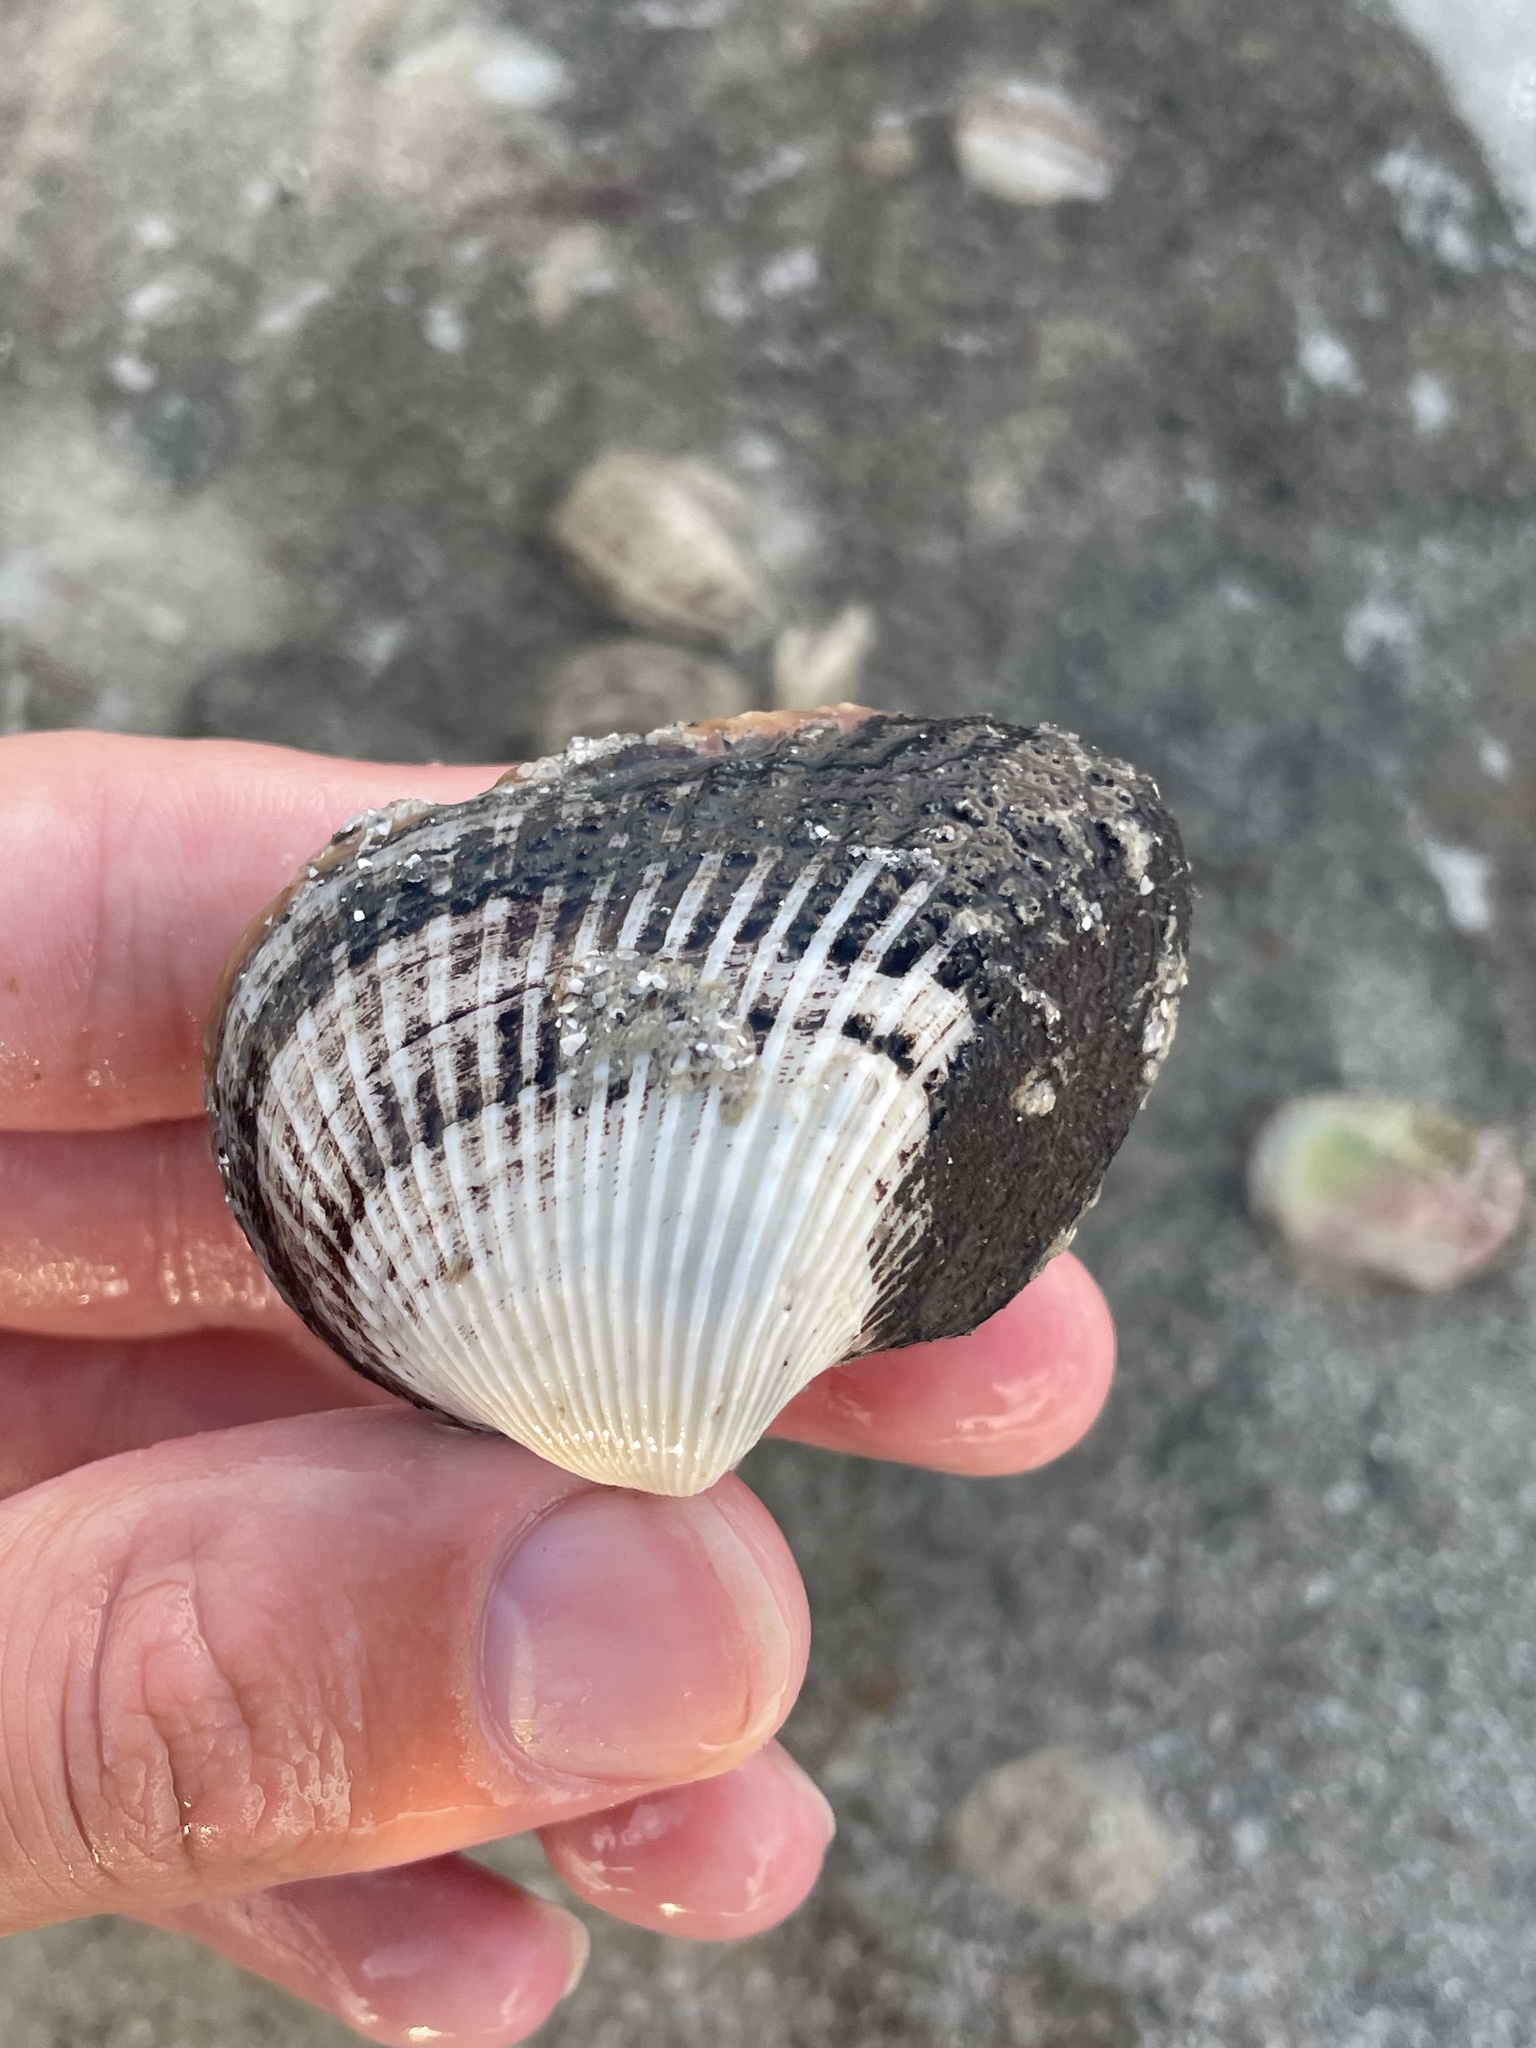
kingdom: Animalia
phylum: Mollusca
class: Bivalvia
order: Arcida
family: Noetiidae
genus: Noetia
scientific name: Noetia ponderosa
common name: Ponderous ark
